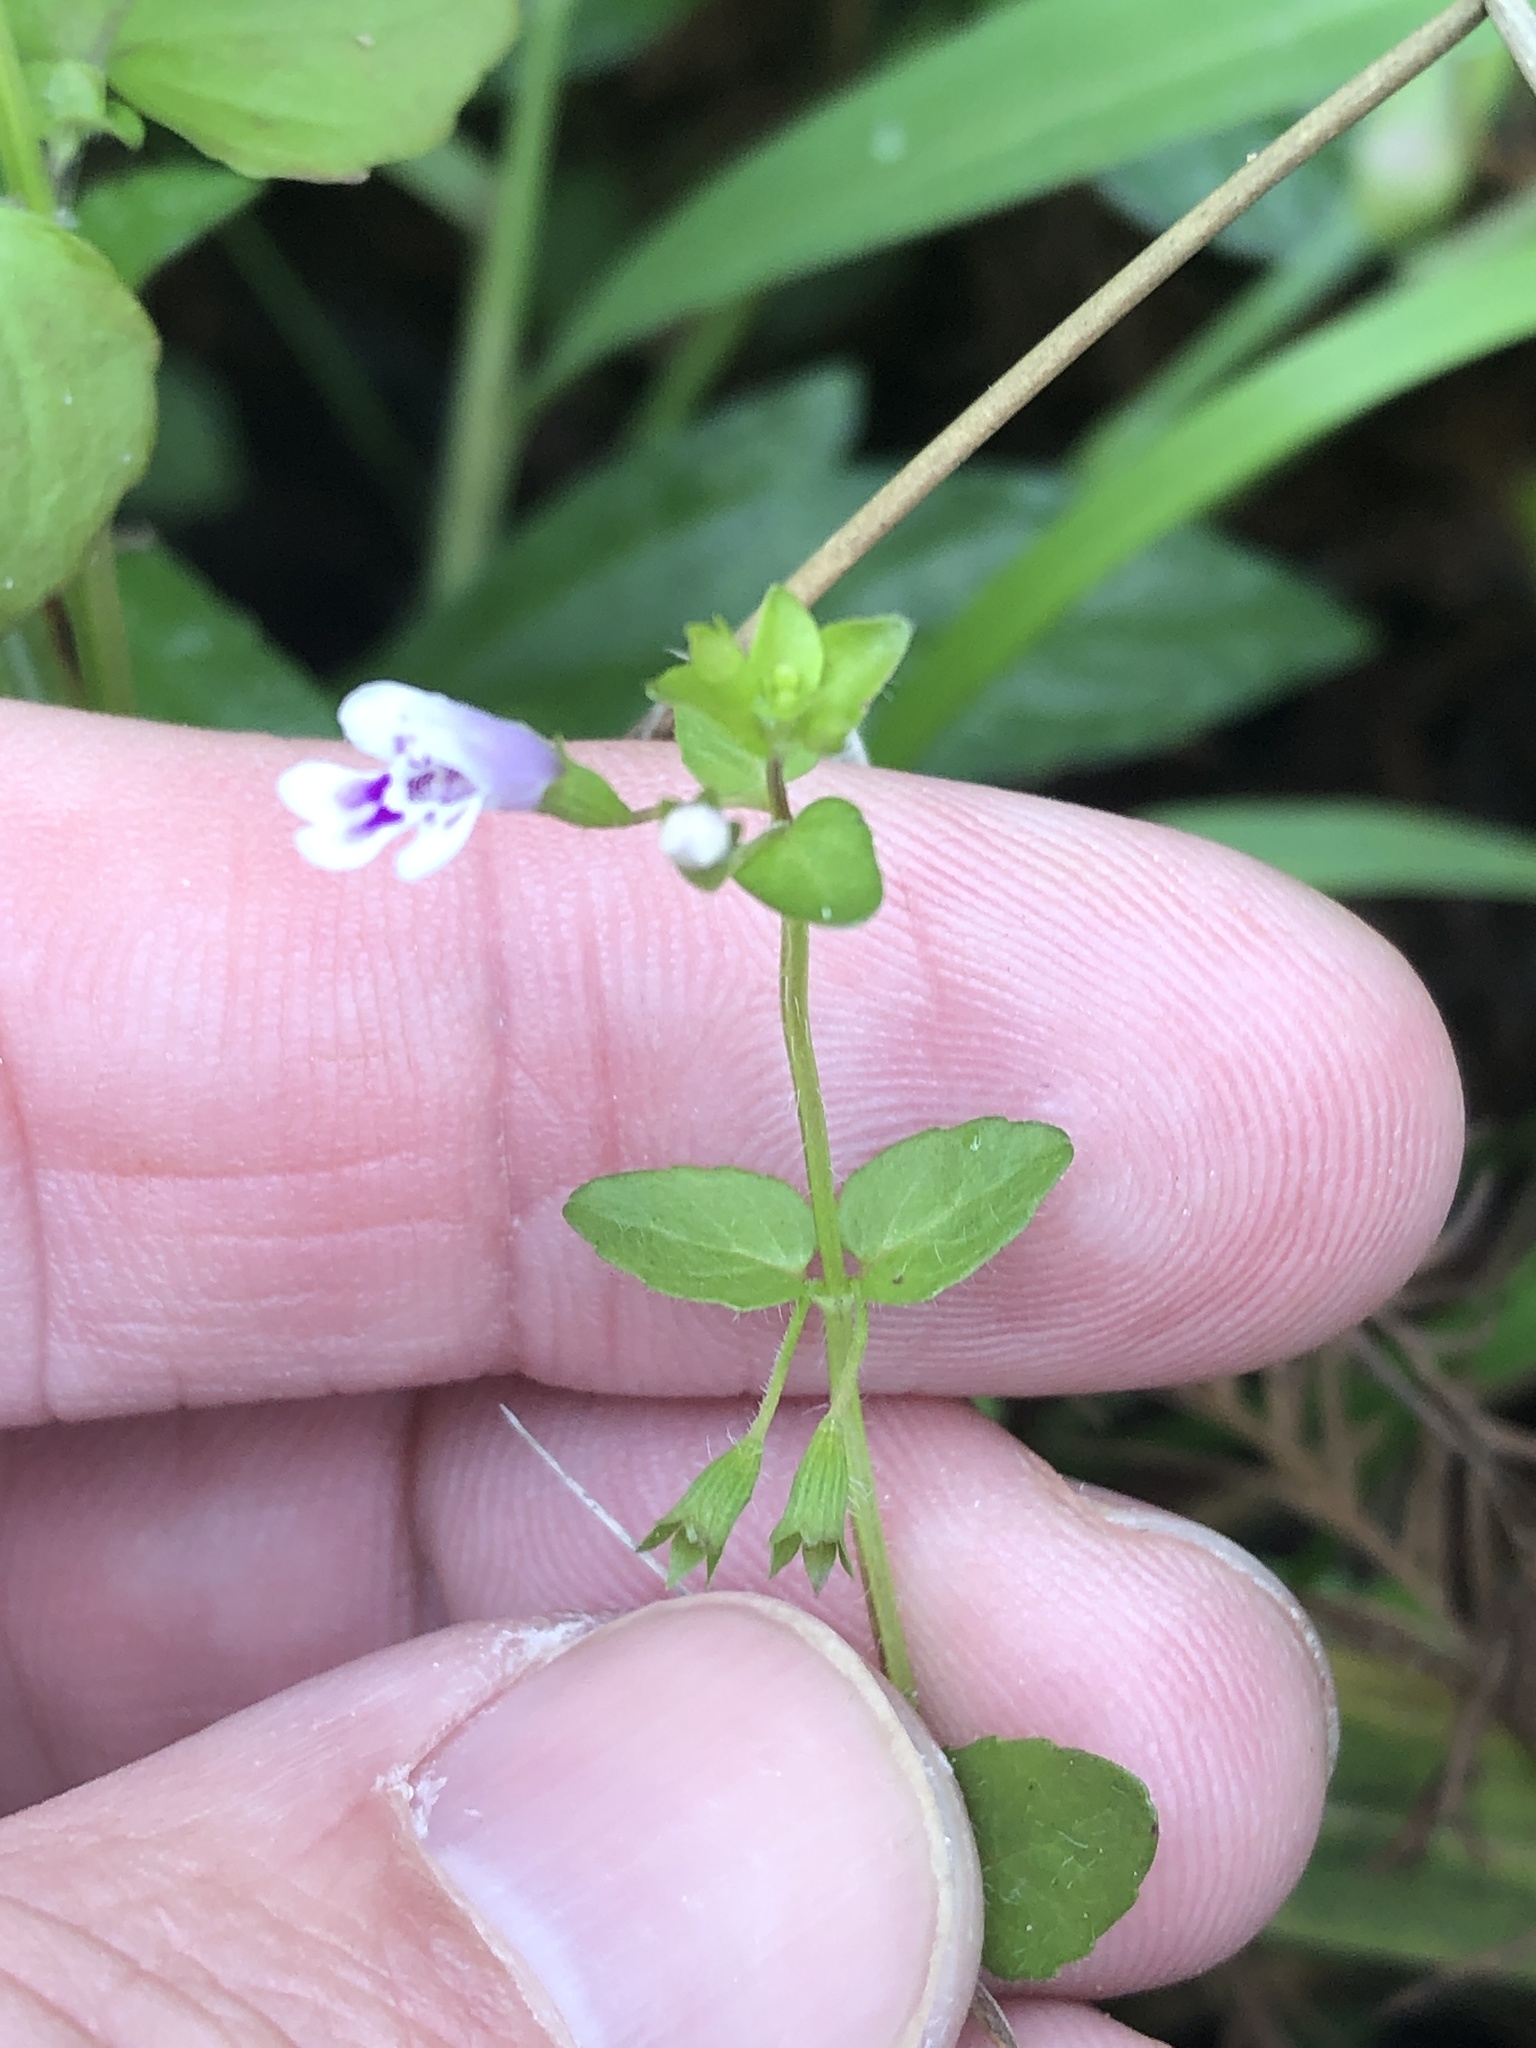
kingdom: Plantae
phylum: Tracheophyta
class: Magnoliopsida
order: Lamiales
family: Linderniaceae
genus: Lindernia
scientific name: Lindernia dubia
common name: Annual false pimpernel
